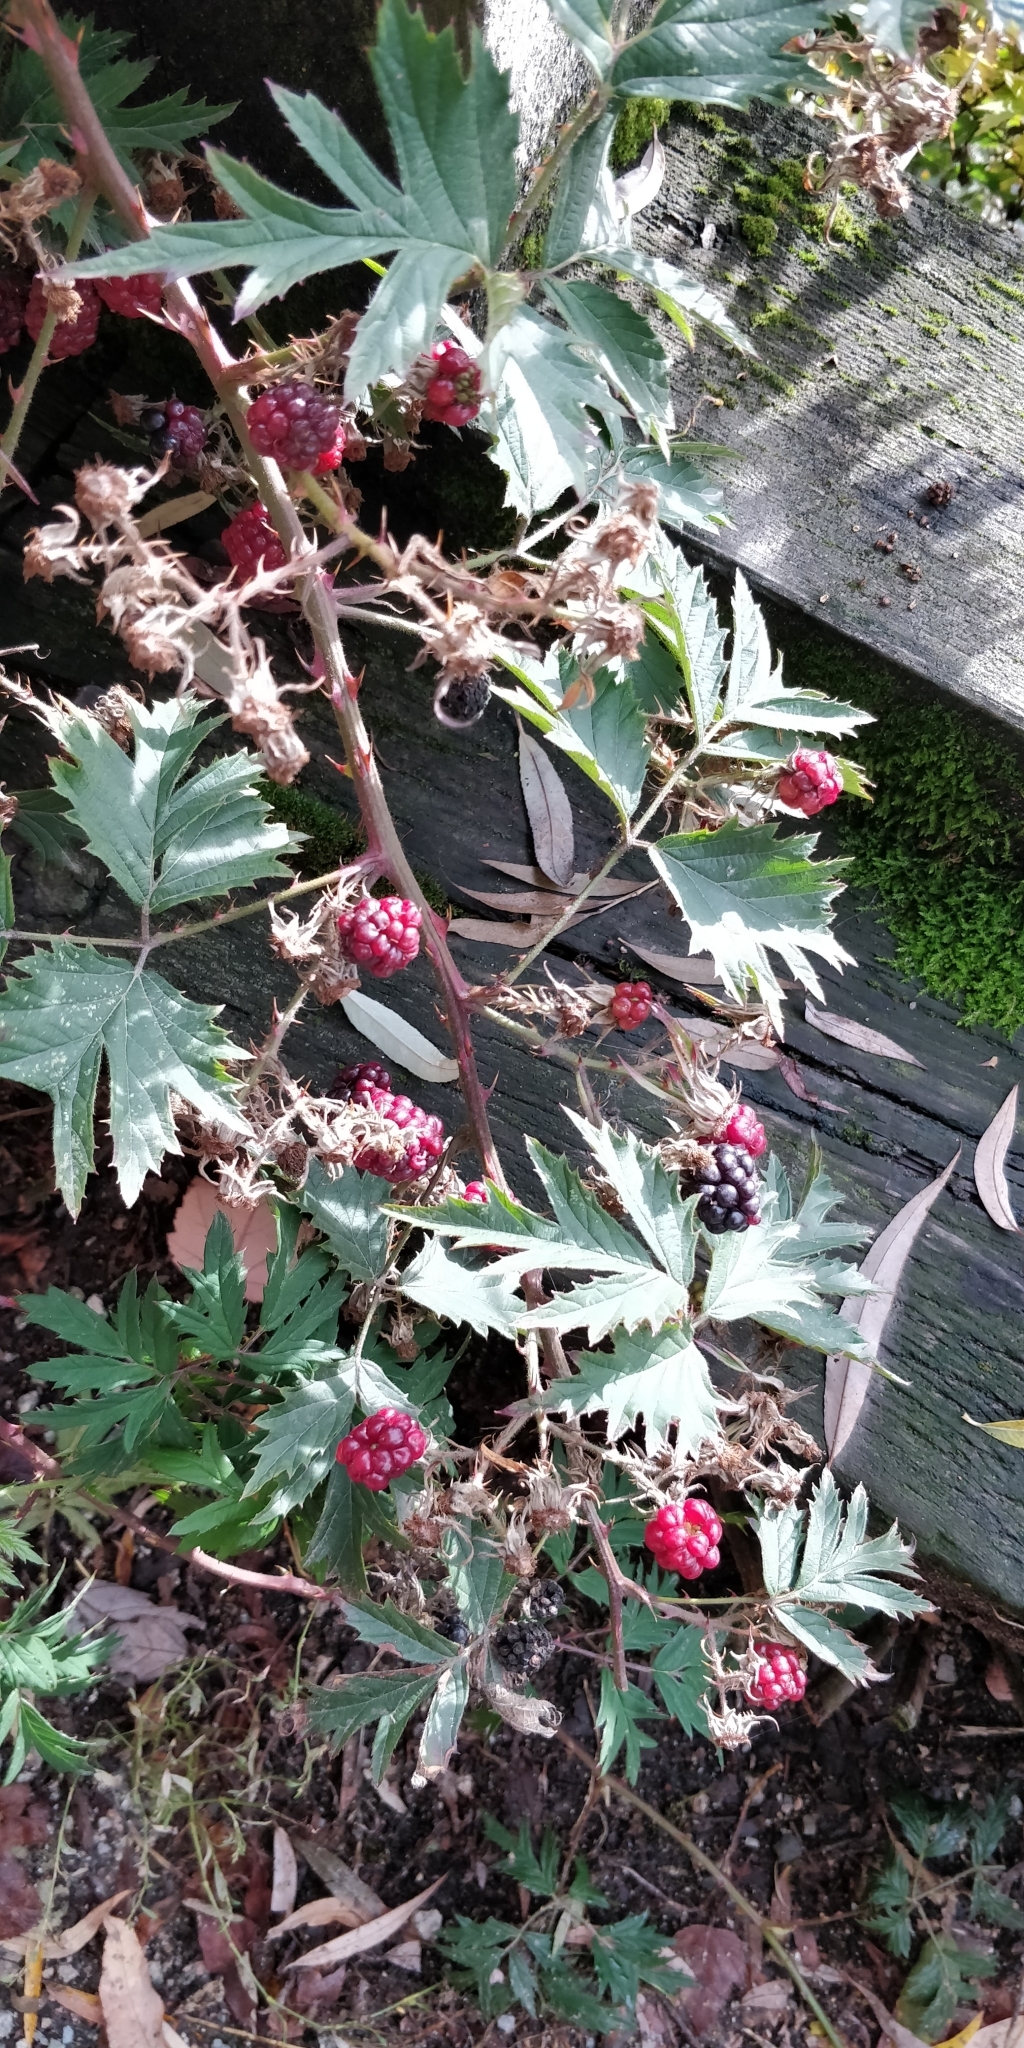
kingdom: Plantae
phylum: Tracheophyta
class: Magnoliopsida
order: Rosales
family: Rosaceae
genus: Rubus
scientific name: Rubus laciniatus
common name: Evergreen blackberry
